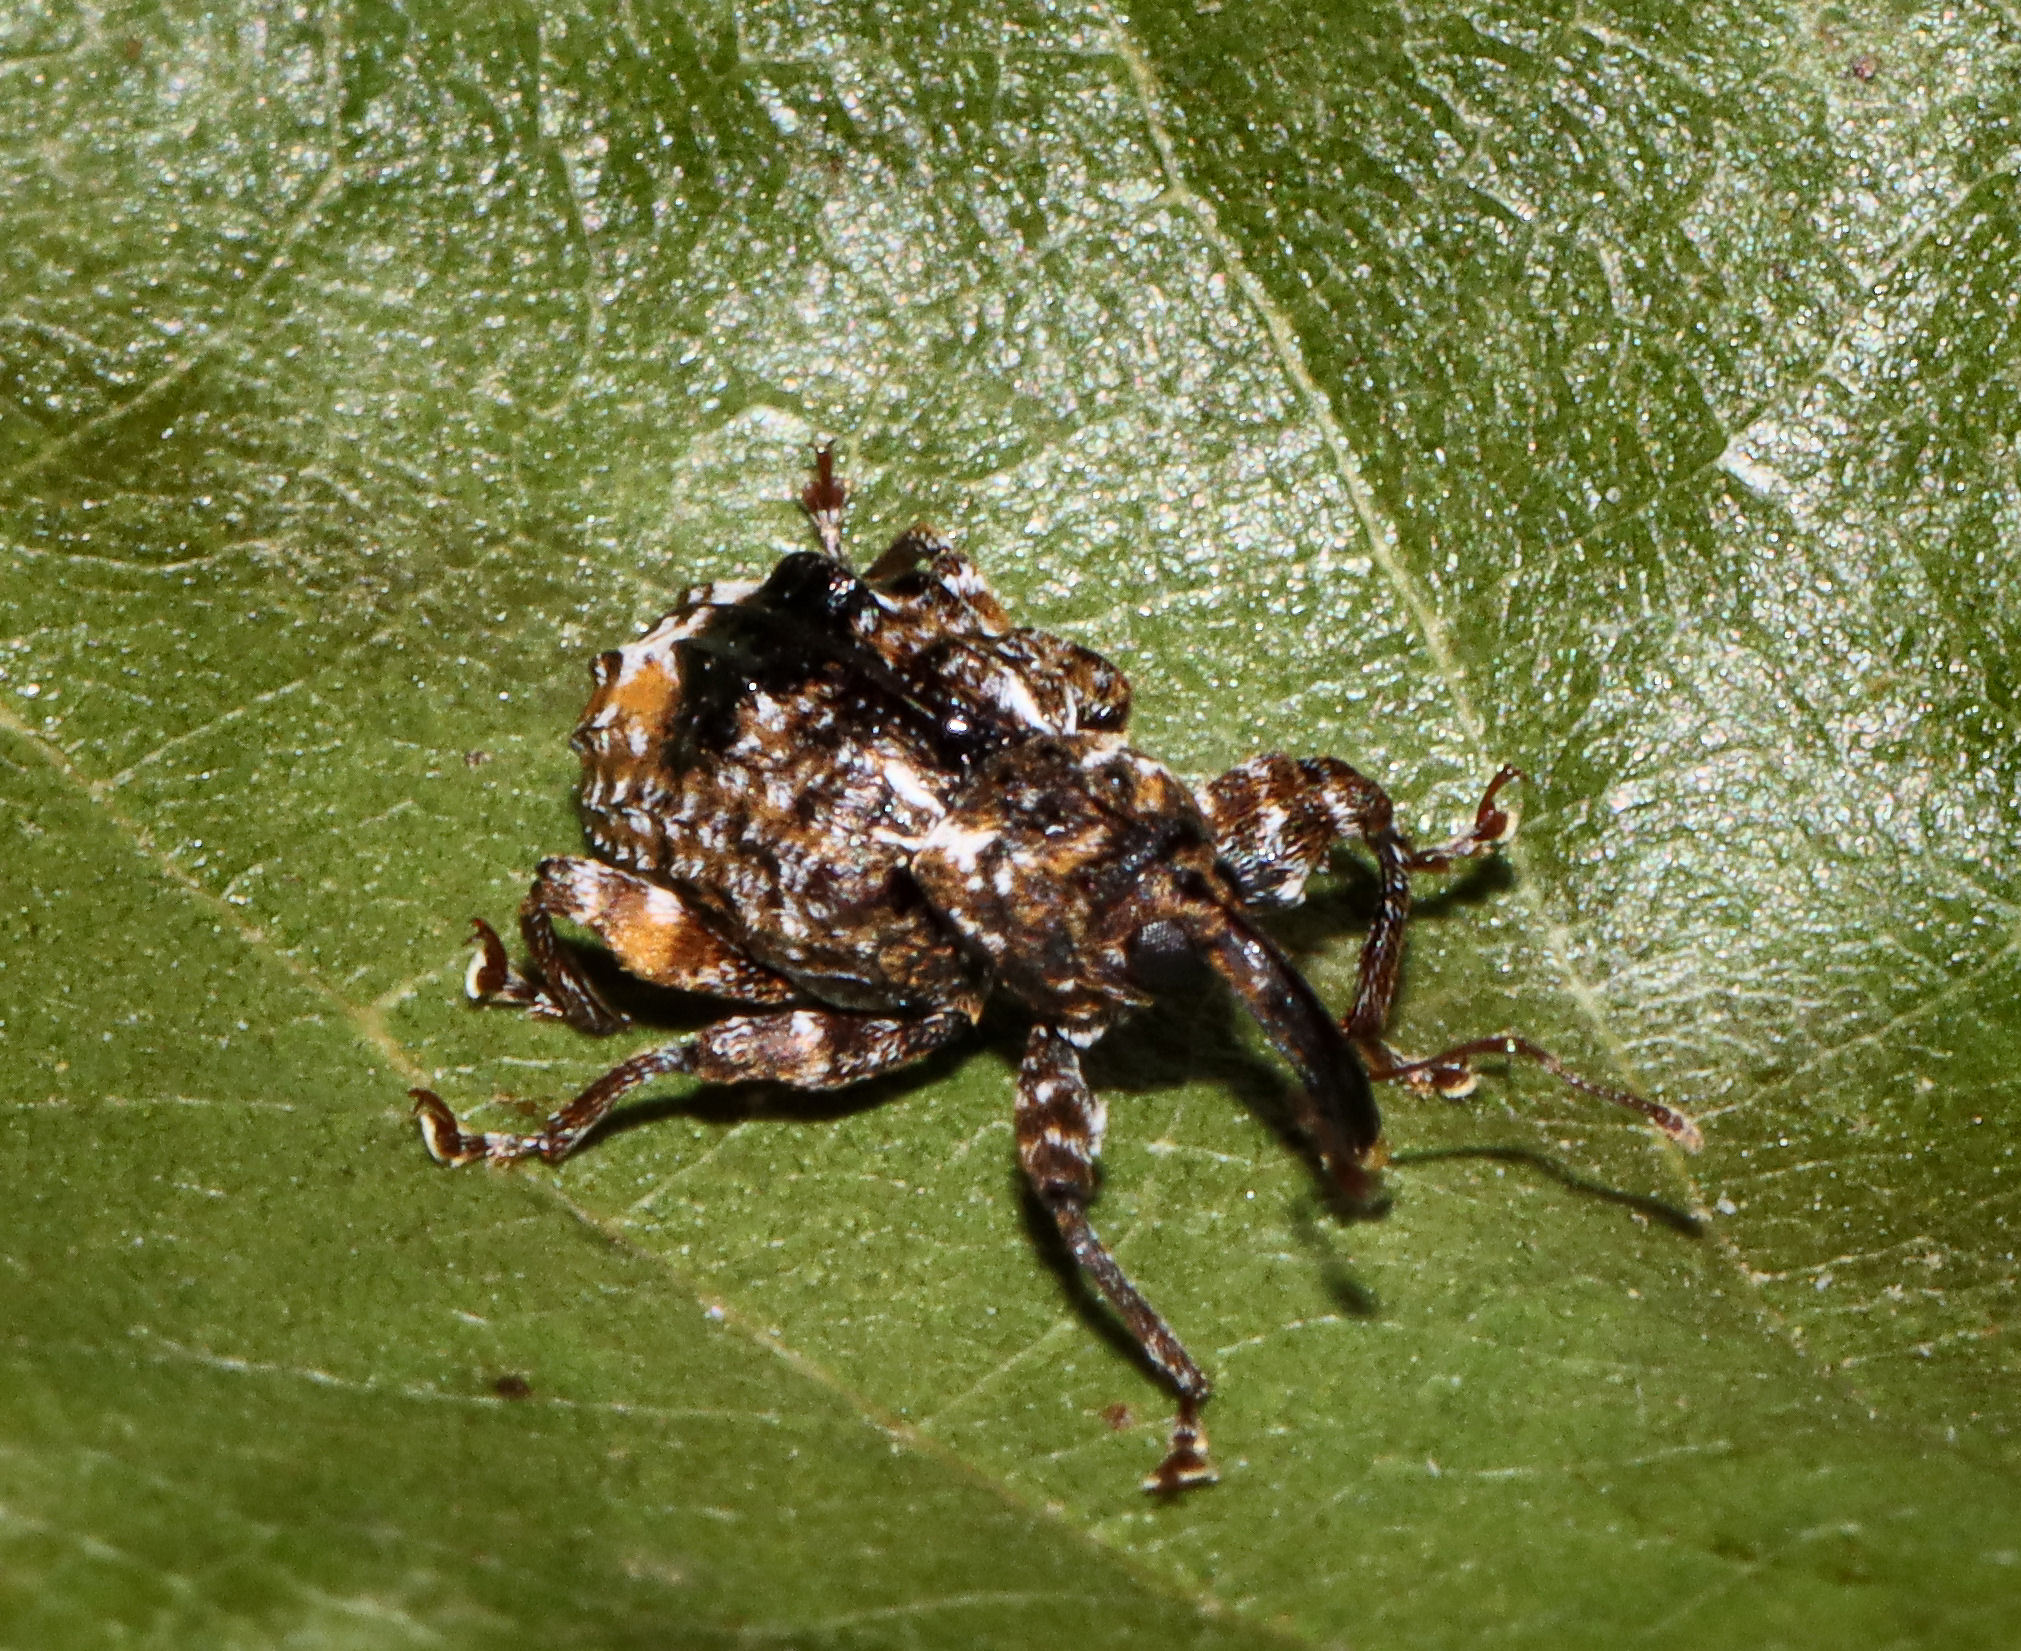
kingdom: Animalia
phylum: Arthropoda
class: Insecta
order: Coleoptera
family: Curculionidae
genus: Conotrachelus
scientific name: Conotrachelus nenuphar
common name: Plum curculio
